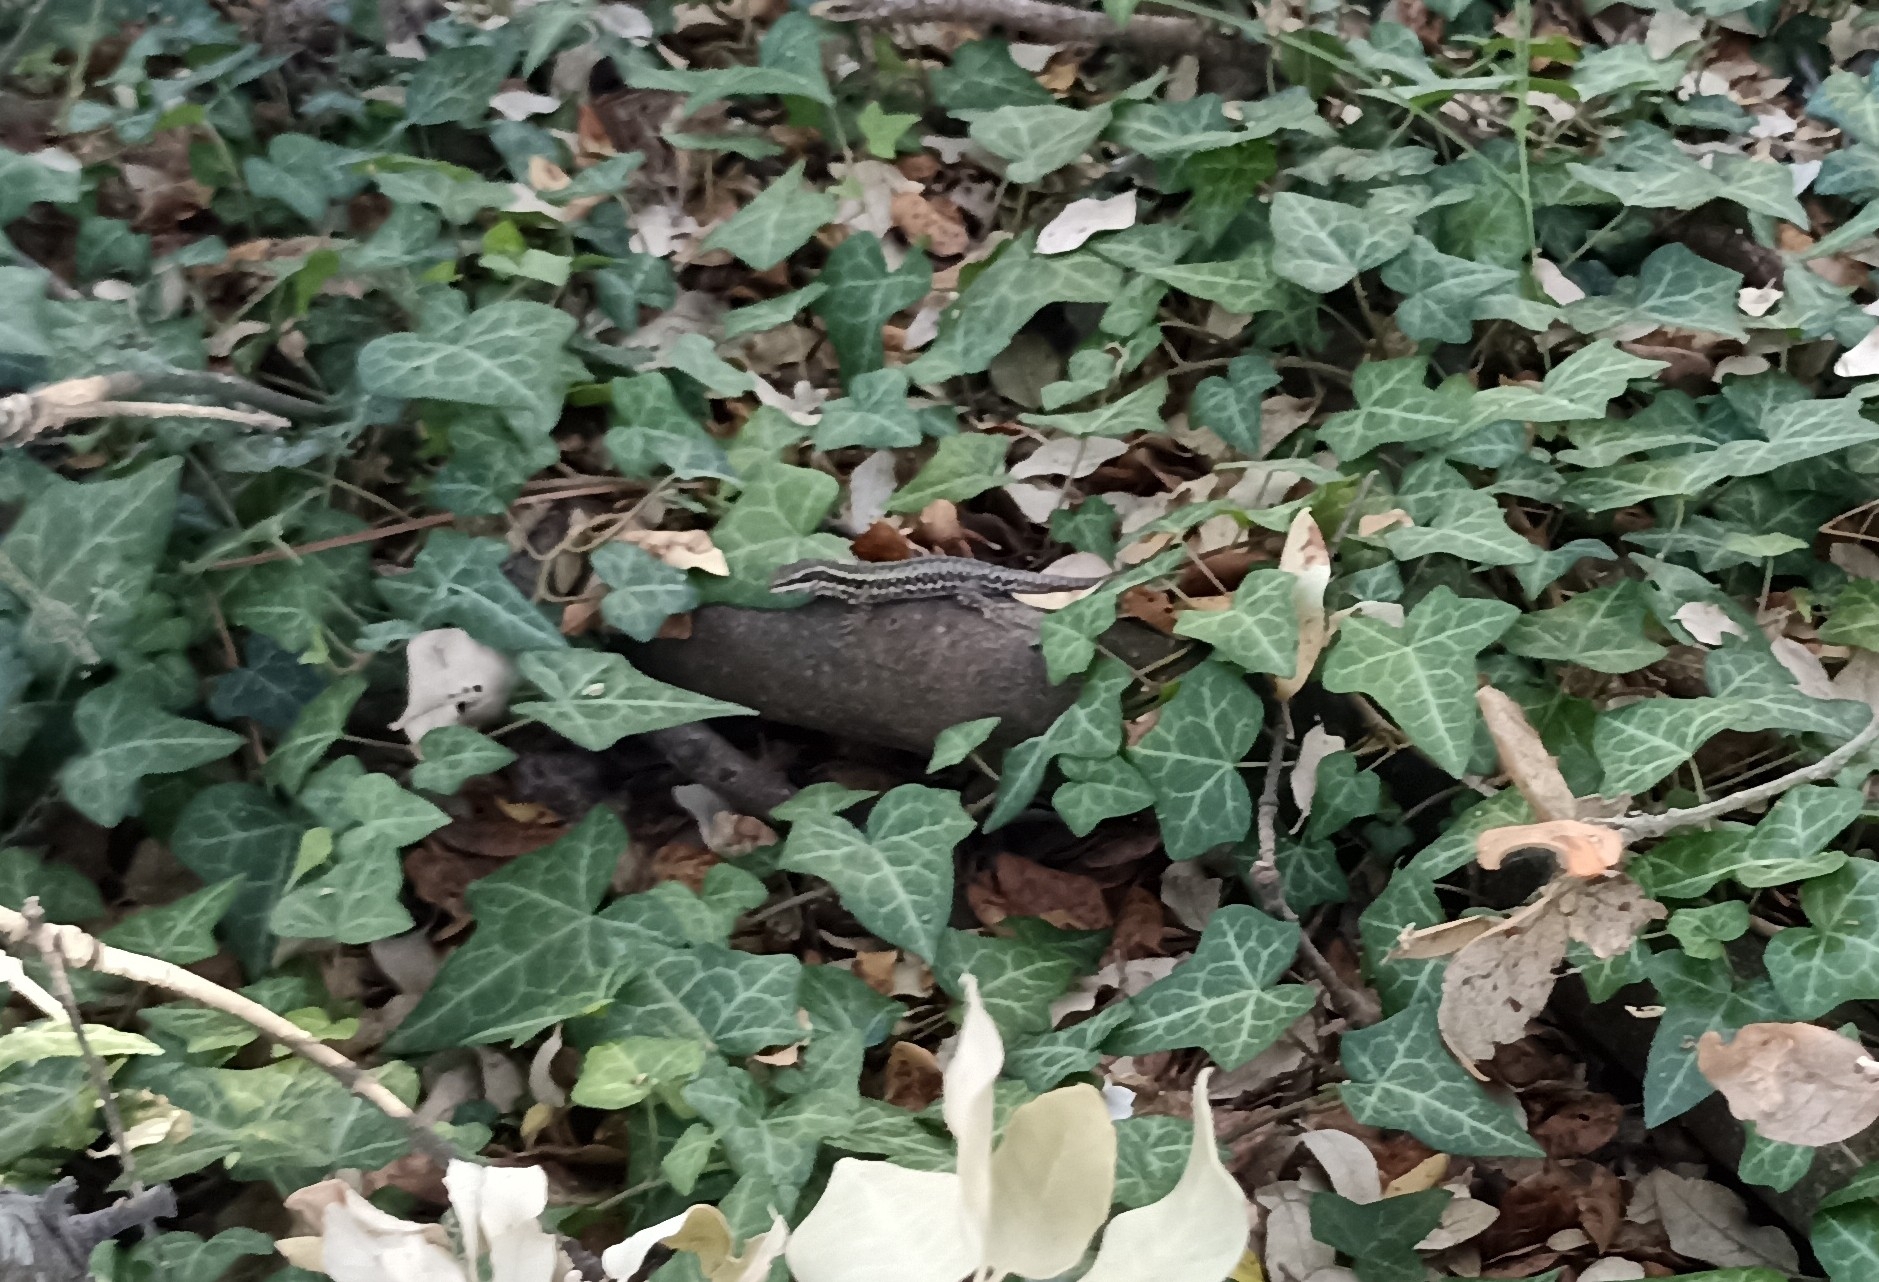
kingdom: Animalia
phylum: Chordata
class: Squamata
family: Lacertidae
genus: Podarcis
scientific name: Podarcis muralis
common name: Common wall lizard
